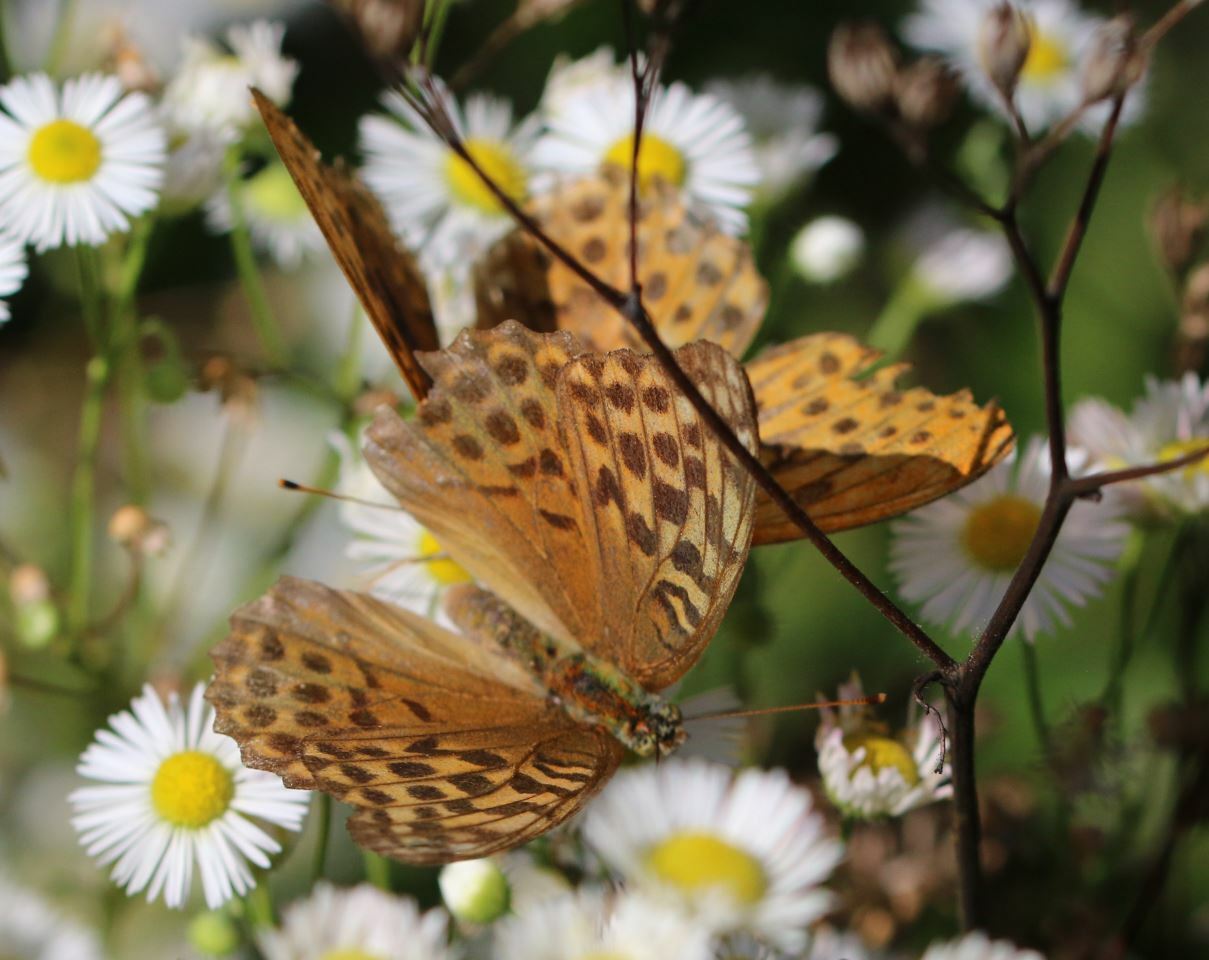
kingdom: Animalia
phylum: Arthropoda
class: Insecta
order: Lepidoptera
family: Nymphalidae
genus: Argynnis
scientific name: Argynnis paphia
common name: Silver-washed fritillary
